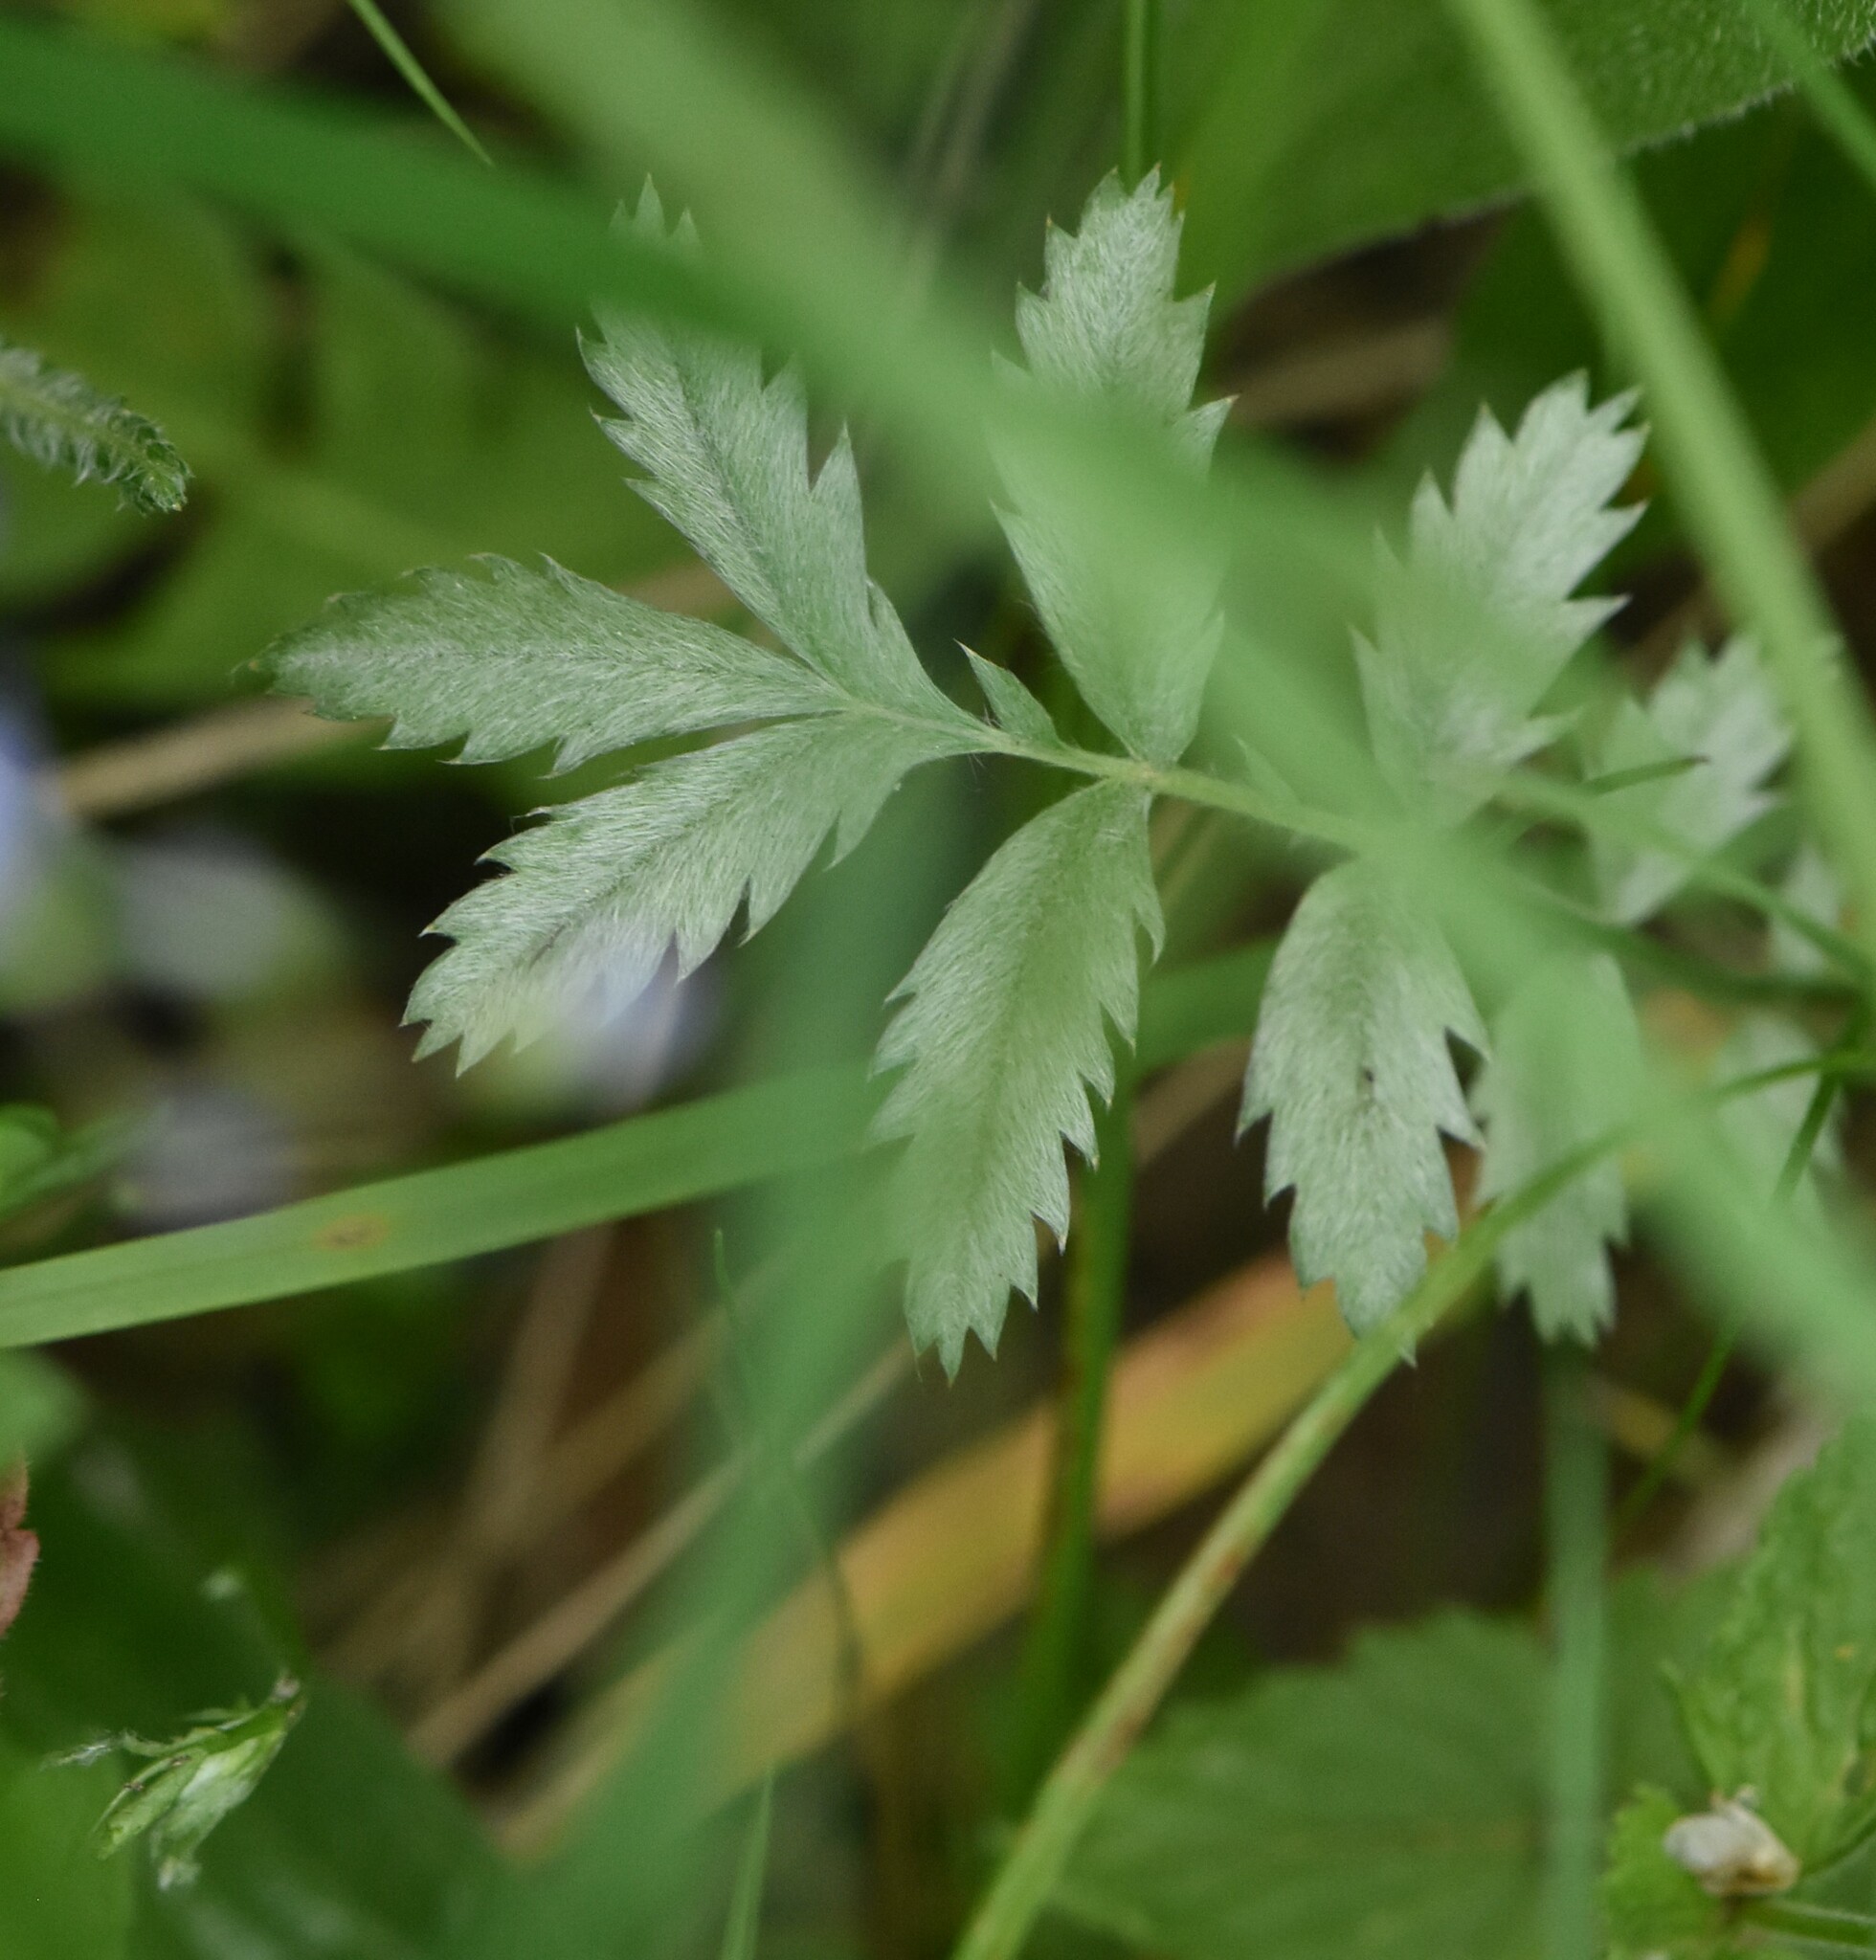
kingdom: Plantae
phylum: Tracheophyta
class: Magnoliopsida
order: Rosales
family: Rosaceae
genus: Argentina
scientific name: Argentina anserina
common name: Common silverweed
